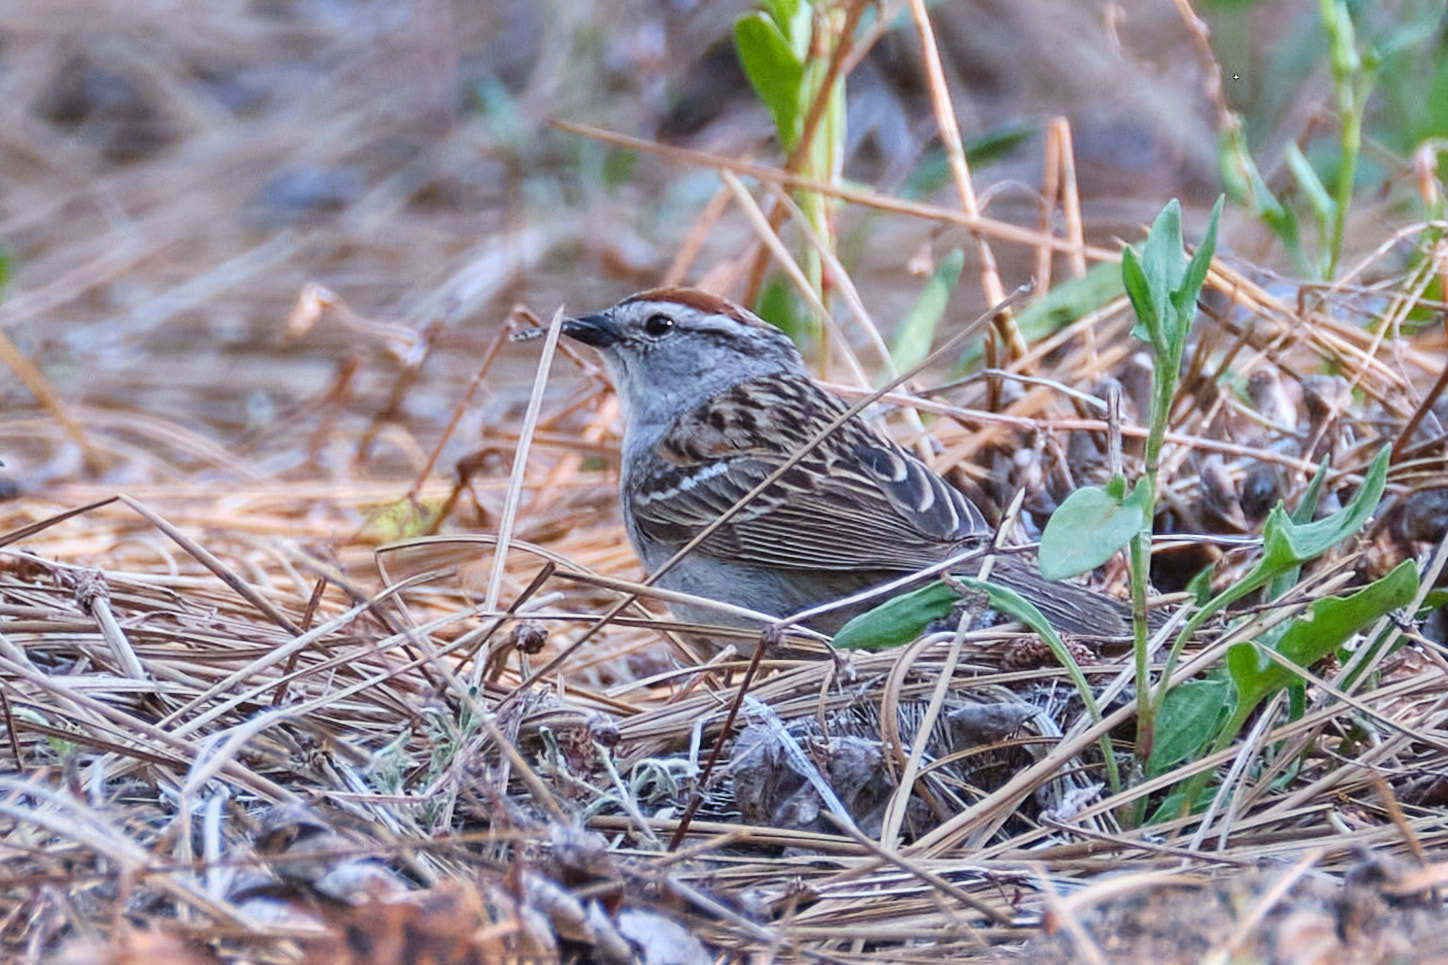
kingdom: Animalia
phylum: Chordata
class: Aves
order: Passeriformes
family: Passerellidae
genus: Spizella
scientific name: Spizella passerina
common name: Chipping sparrow
